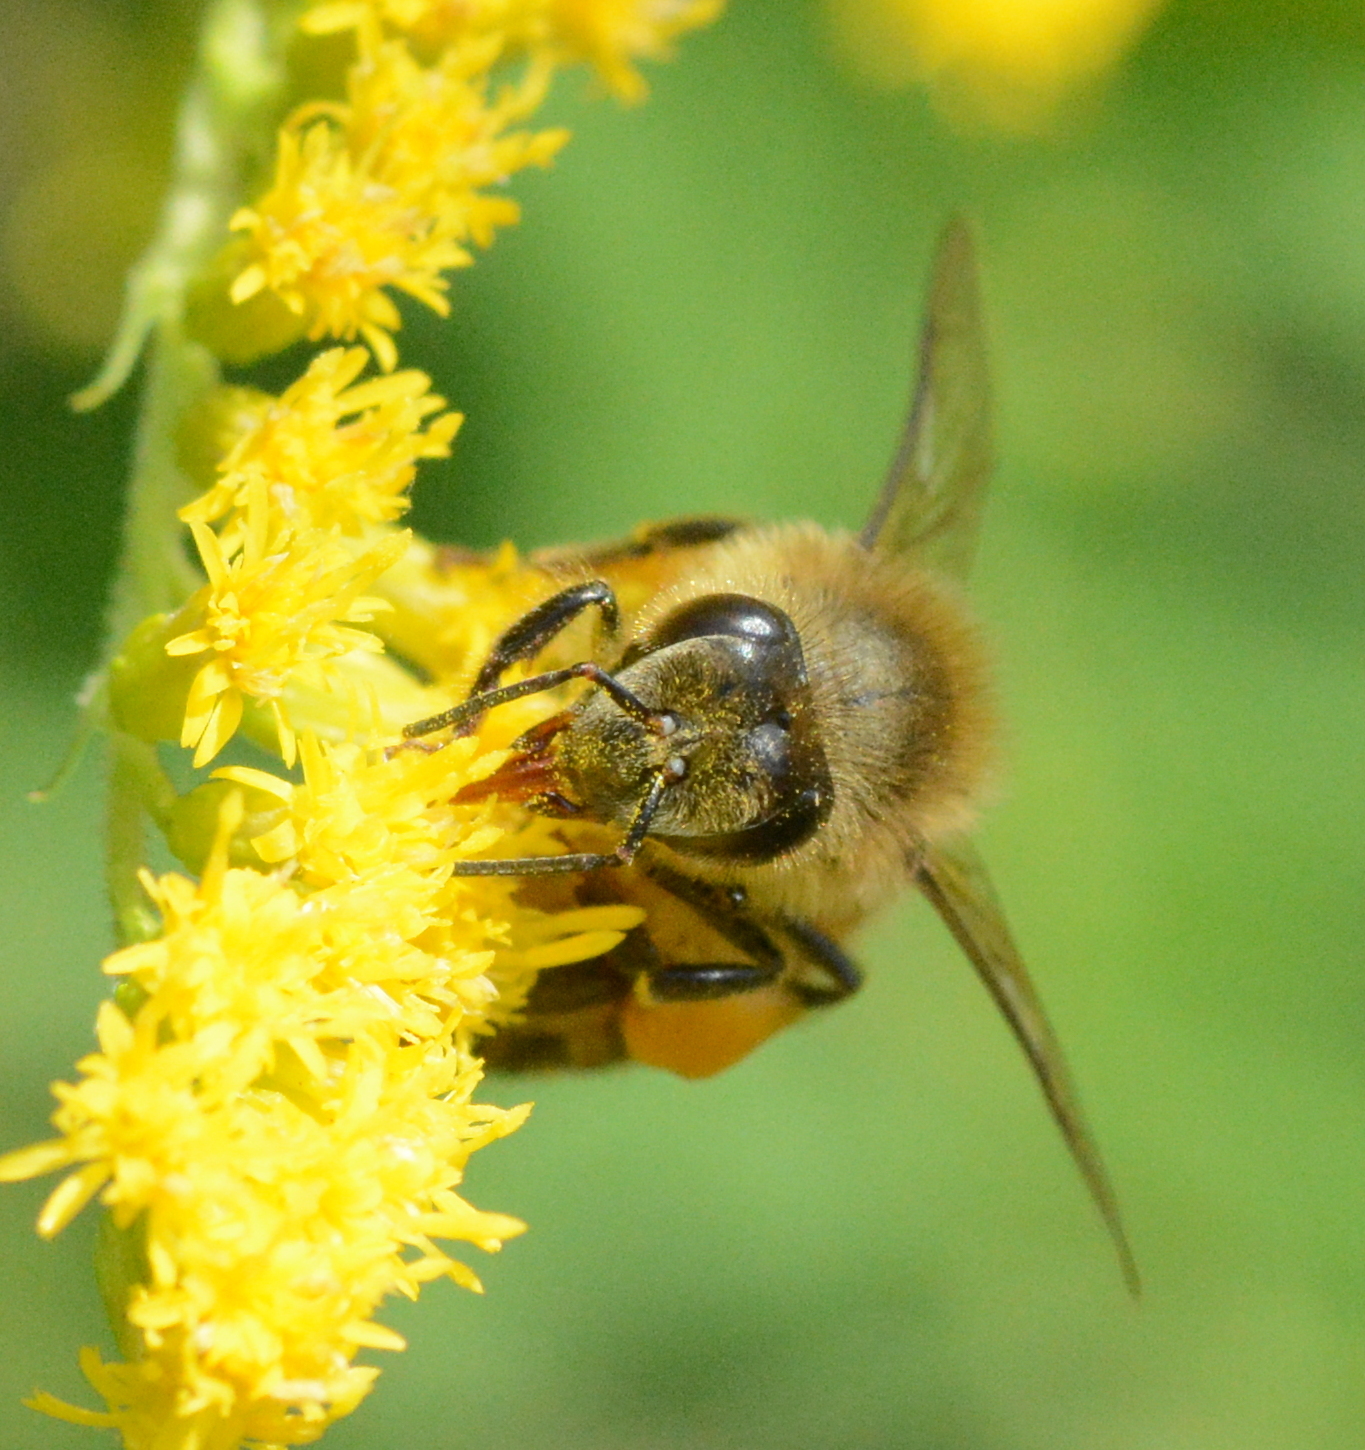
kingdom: Animalia
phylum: Arthropoda
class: Insecta
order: Hymenoptera
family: Apidae
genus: Apis
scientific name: Apis mellifera
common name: Honey bee
